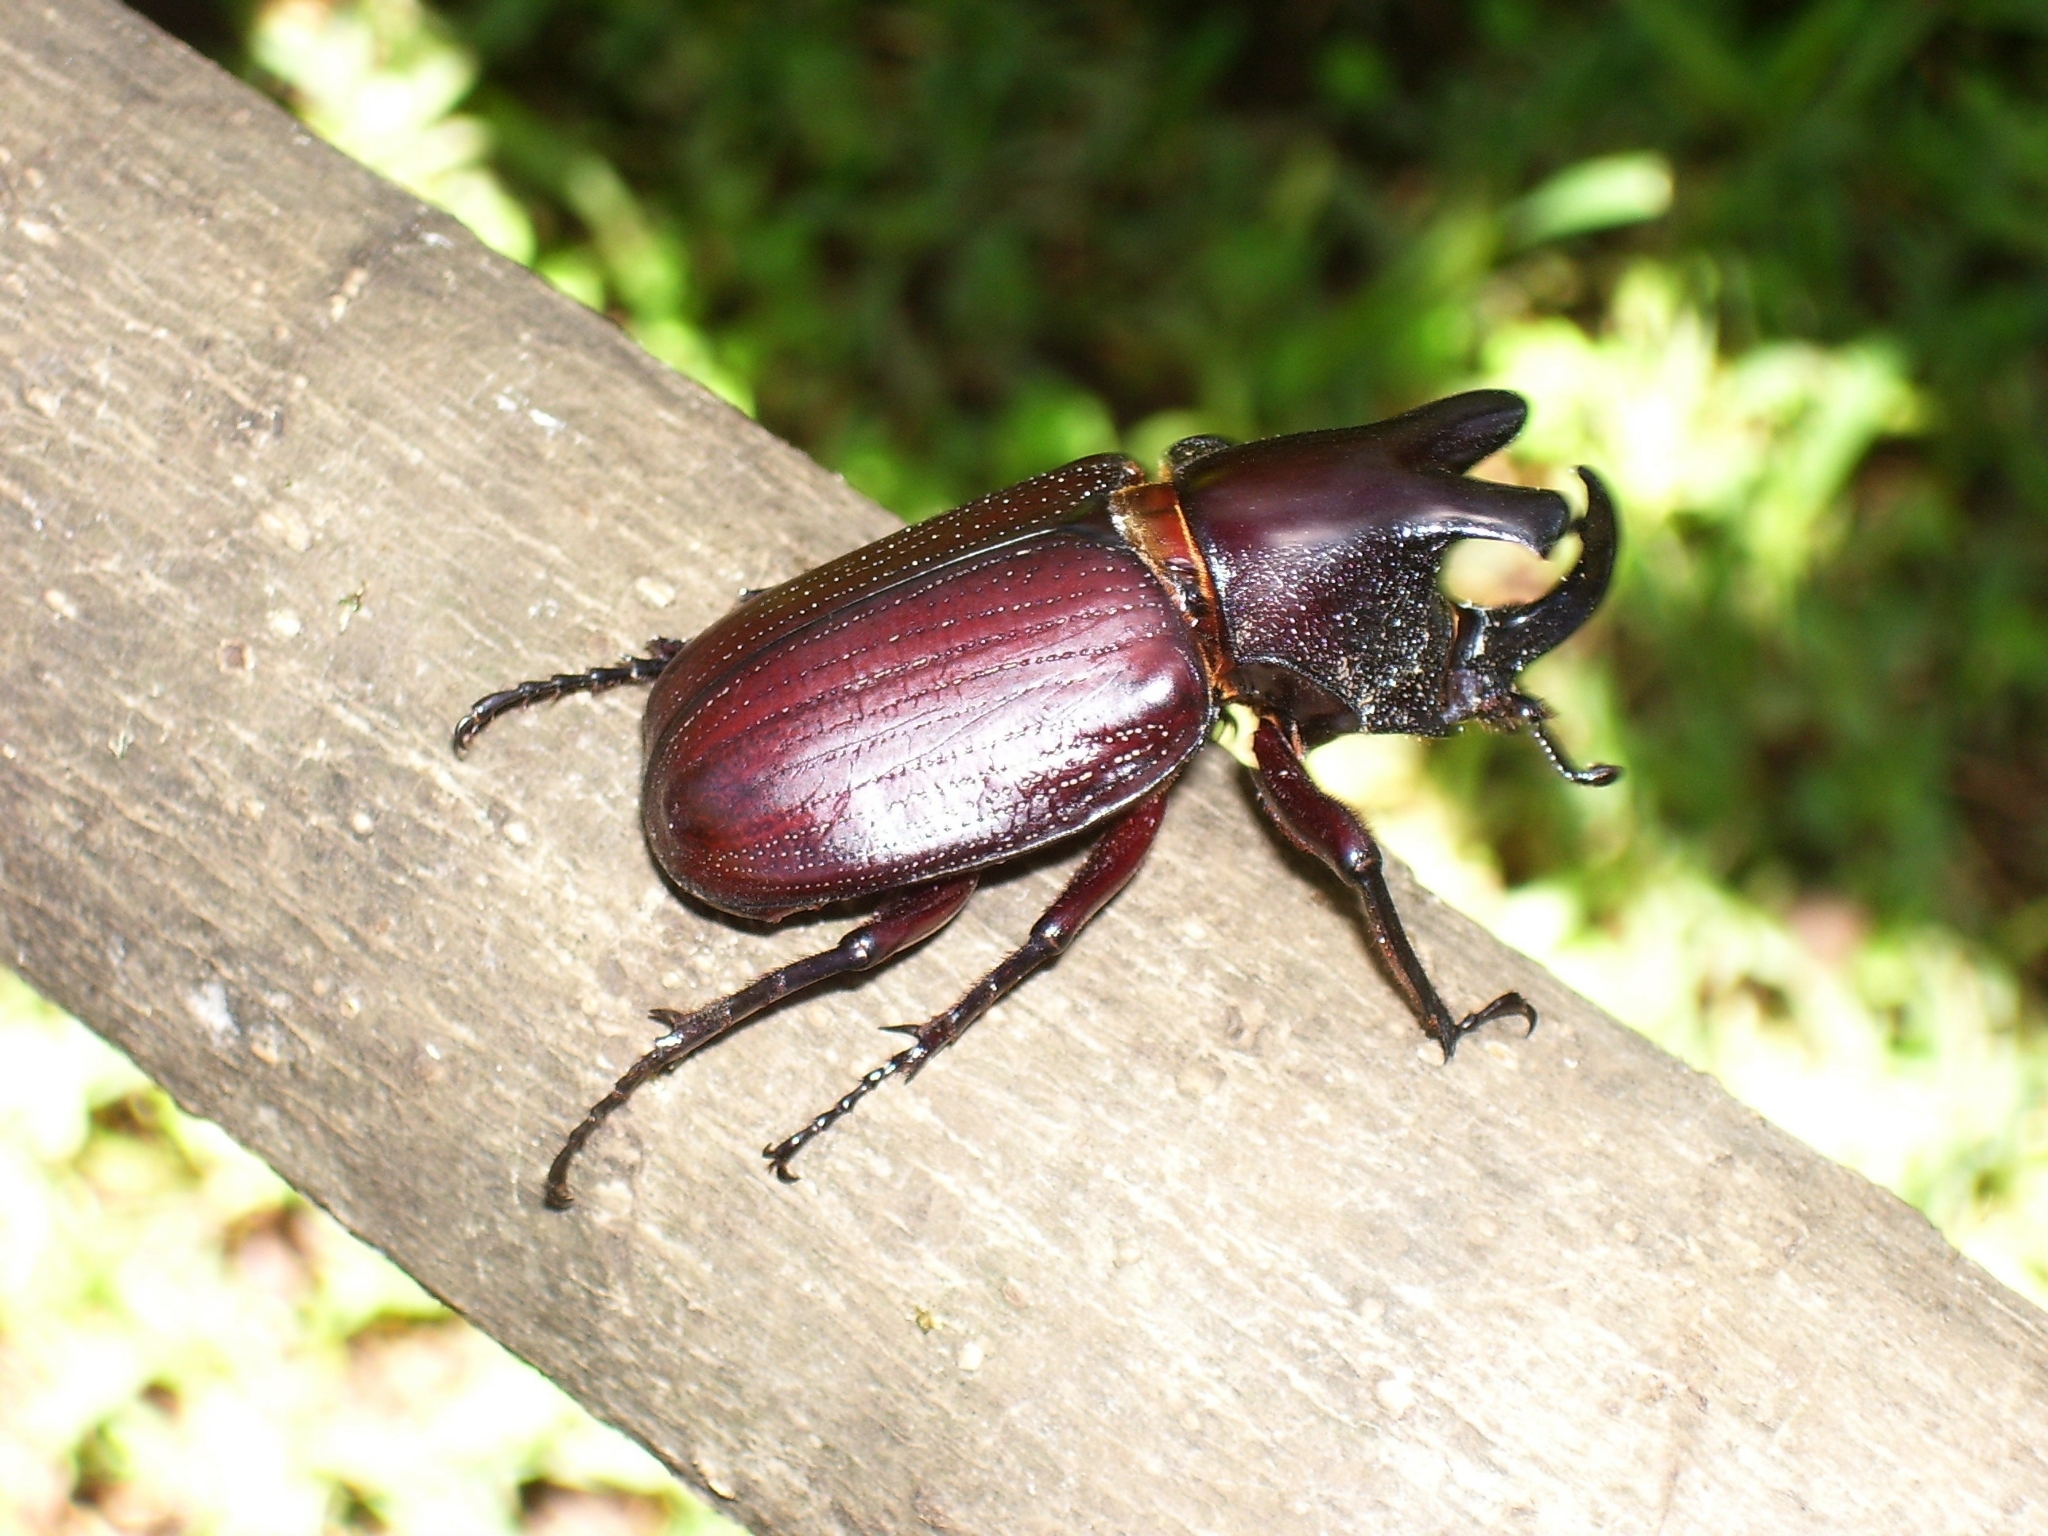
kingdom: Animalia
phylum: Arthropoda
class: Insecta
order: Coleoptera
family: Scarabaeidae
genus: Coelosis
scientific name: Coelosis biloba
